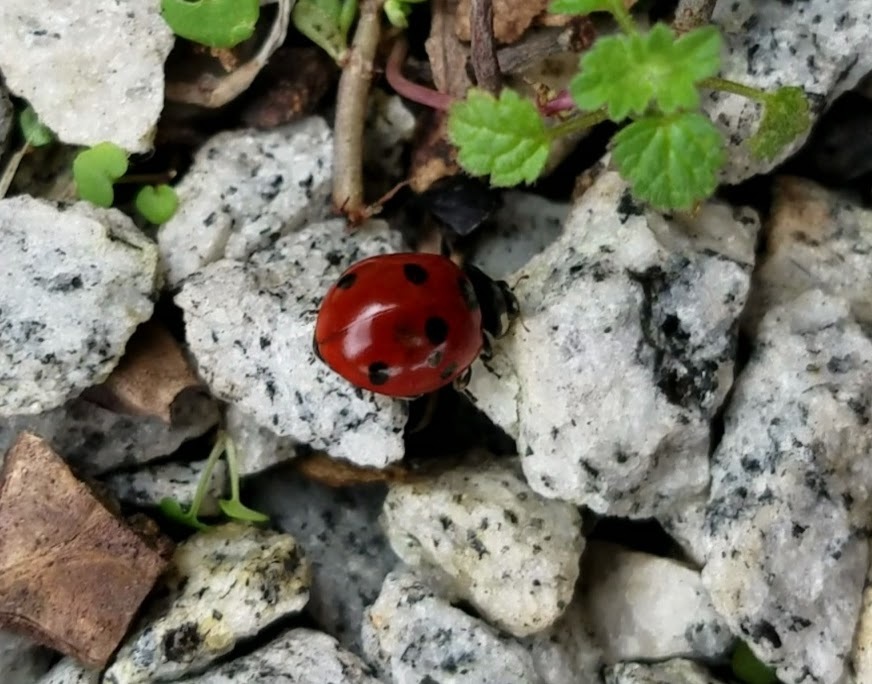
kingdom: Animalia
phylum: Arthropoda
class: Insecta
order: Coleoptera
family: Coccinellidae
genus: Coccinella
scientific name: Coccinella septempunctata
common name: Sevenspotted lady beetle
